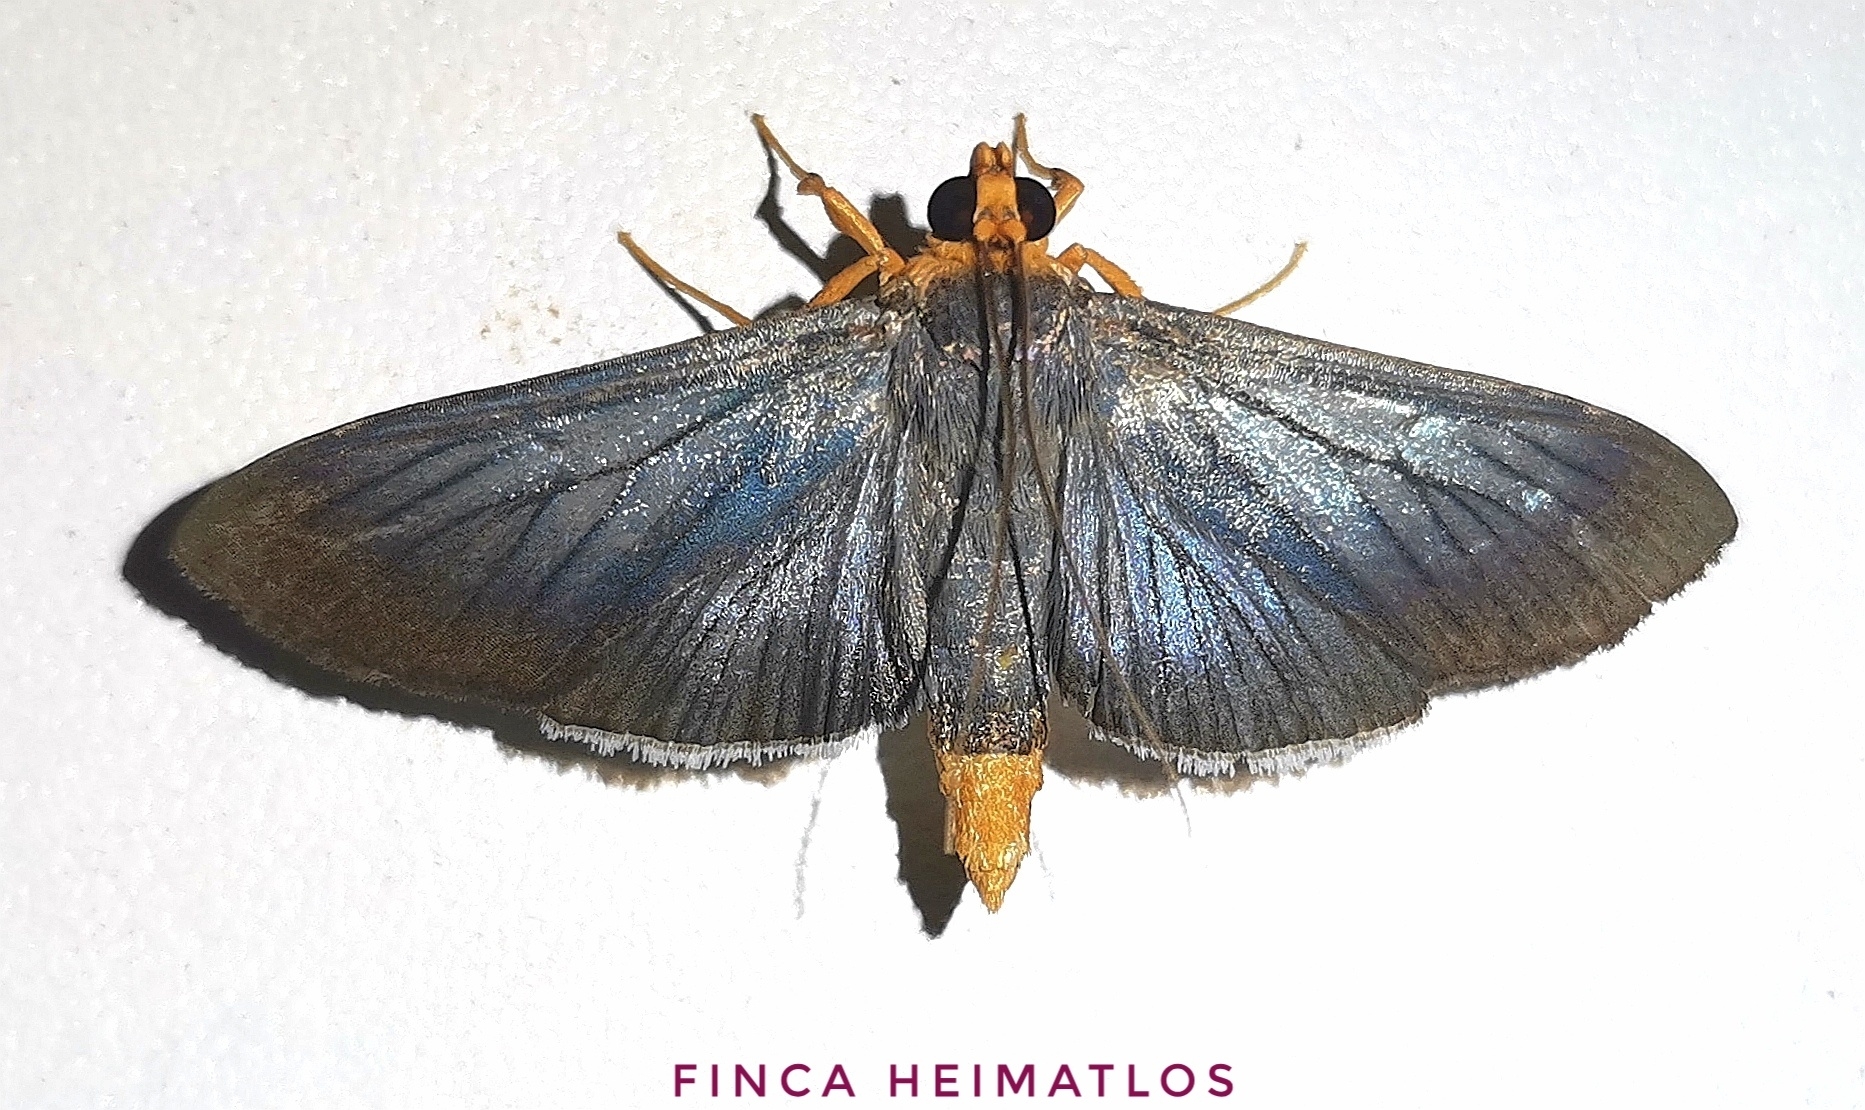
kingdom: Animalia
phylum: Arthropoda
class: Insecta
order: Lepidoptera
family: Crambidae
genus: Omiodes
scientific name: Omiodes fulvicauda
